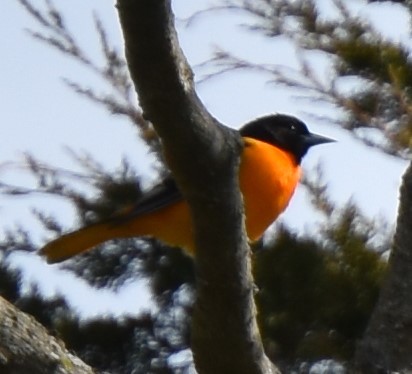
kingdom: Animalia
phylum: Chordata
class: Aves
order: Passeriformes
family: Icteridae
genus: Icterus
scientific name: Icterus galbula
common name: Baltimore oriole
